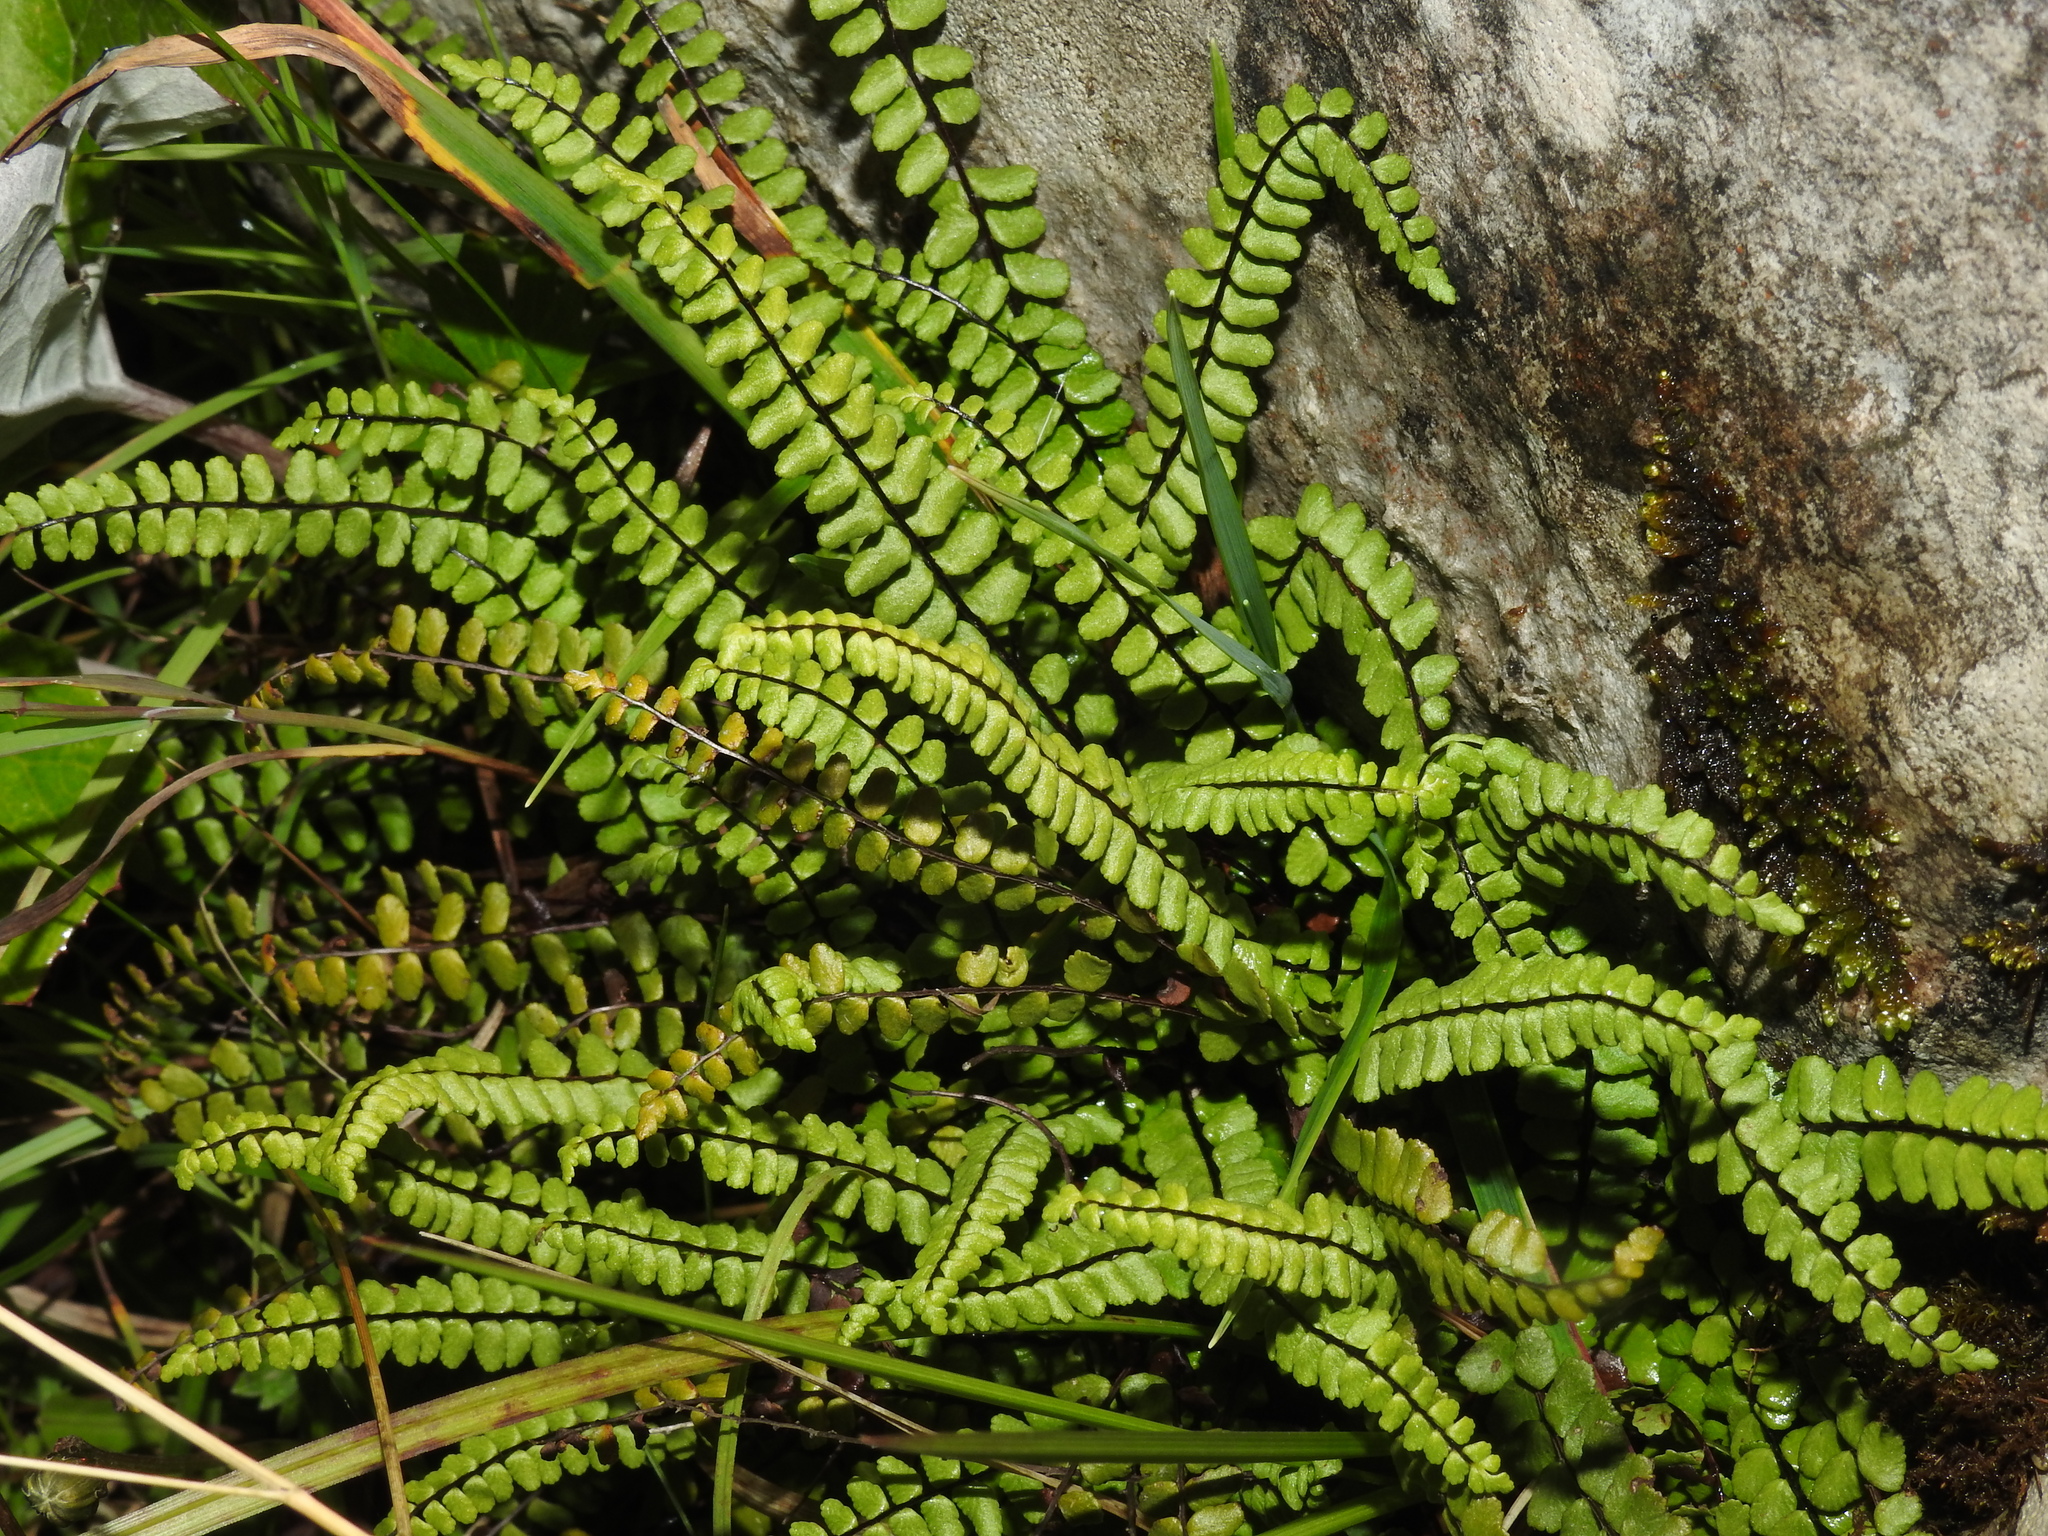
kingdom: Plantae
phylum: Tracheophyta
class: Polypodiopsida
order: Polypodiales
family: Aspleniaceae
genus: Asplenium
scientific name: Asplenium trichomanes
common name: Maidenhair spleenwort
